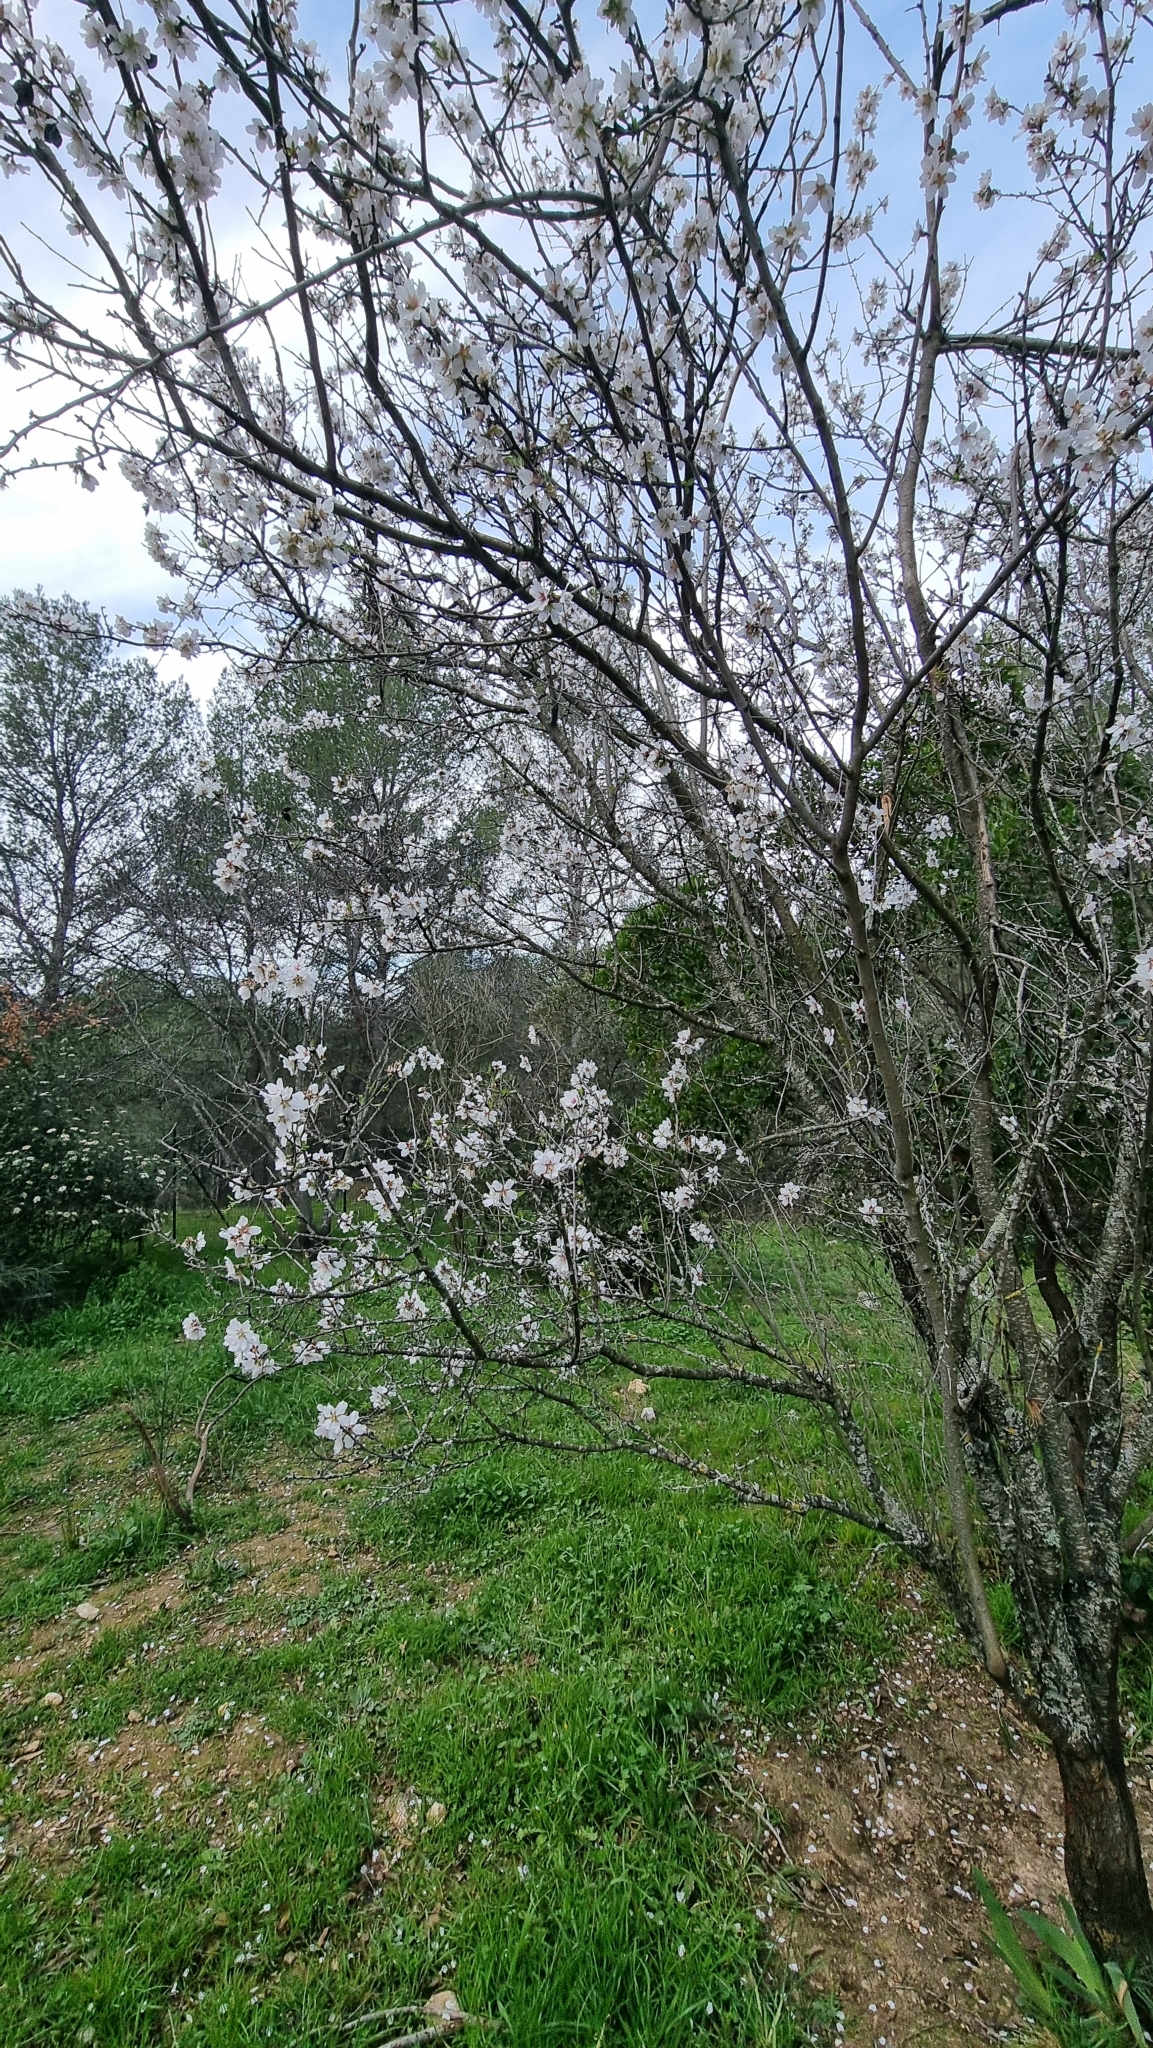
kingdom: Plantae
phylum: Tracheophyta
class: Magnoliopsida
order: Rosales
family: Rosaceae
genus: Prunus
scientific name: Prunus amygdalus
